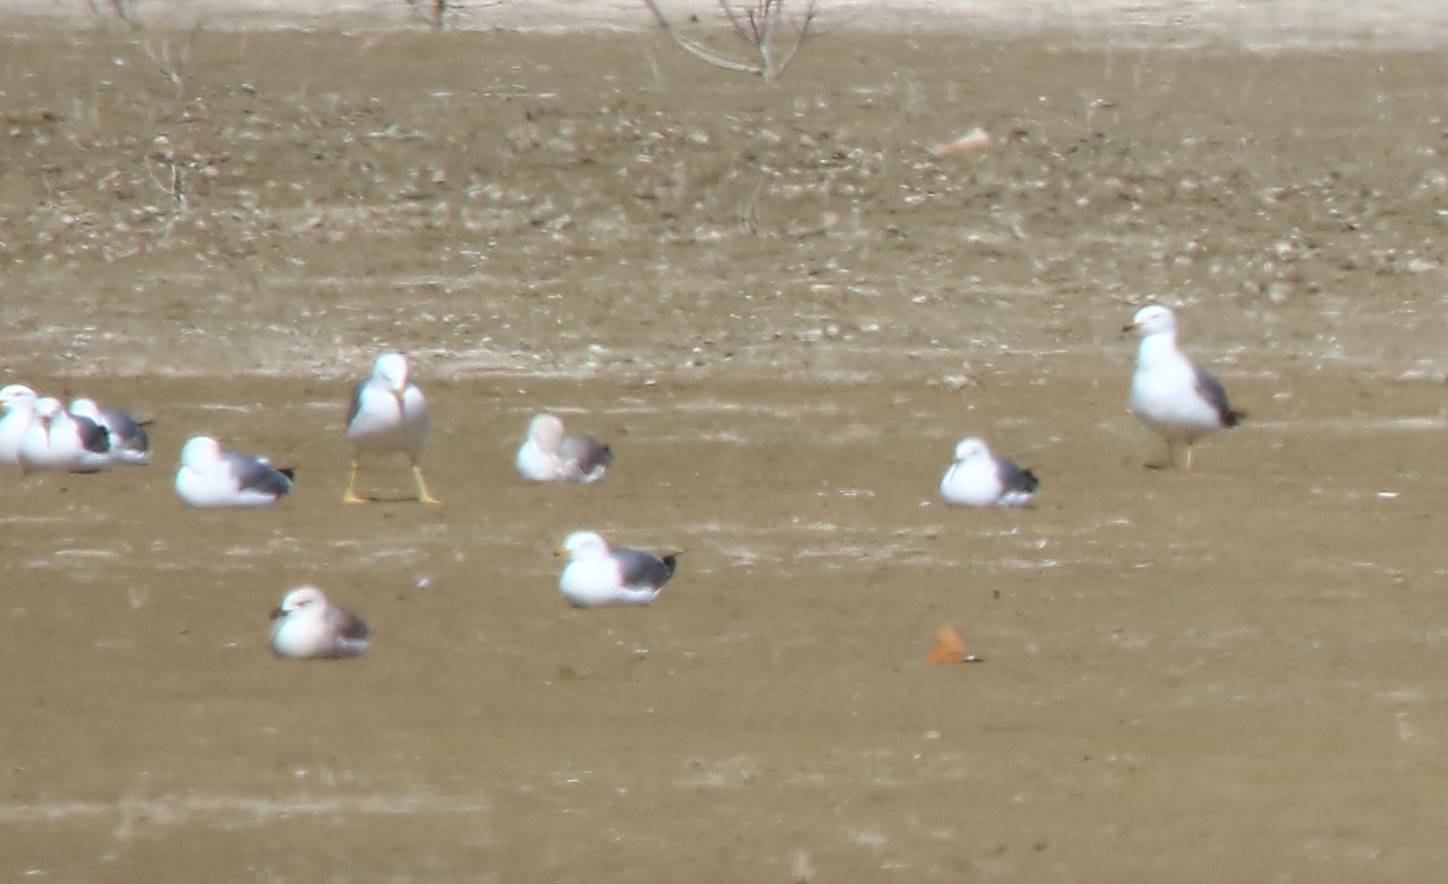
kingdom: Animalia
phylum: Chordata
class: Aves
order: Charadriiformes
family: Laridae
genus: Larus
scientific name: Larus michahellis
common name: Yellow-legged gull
